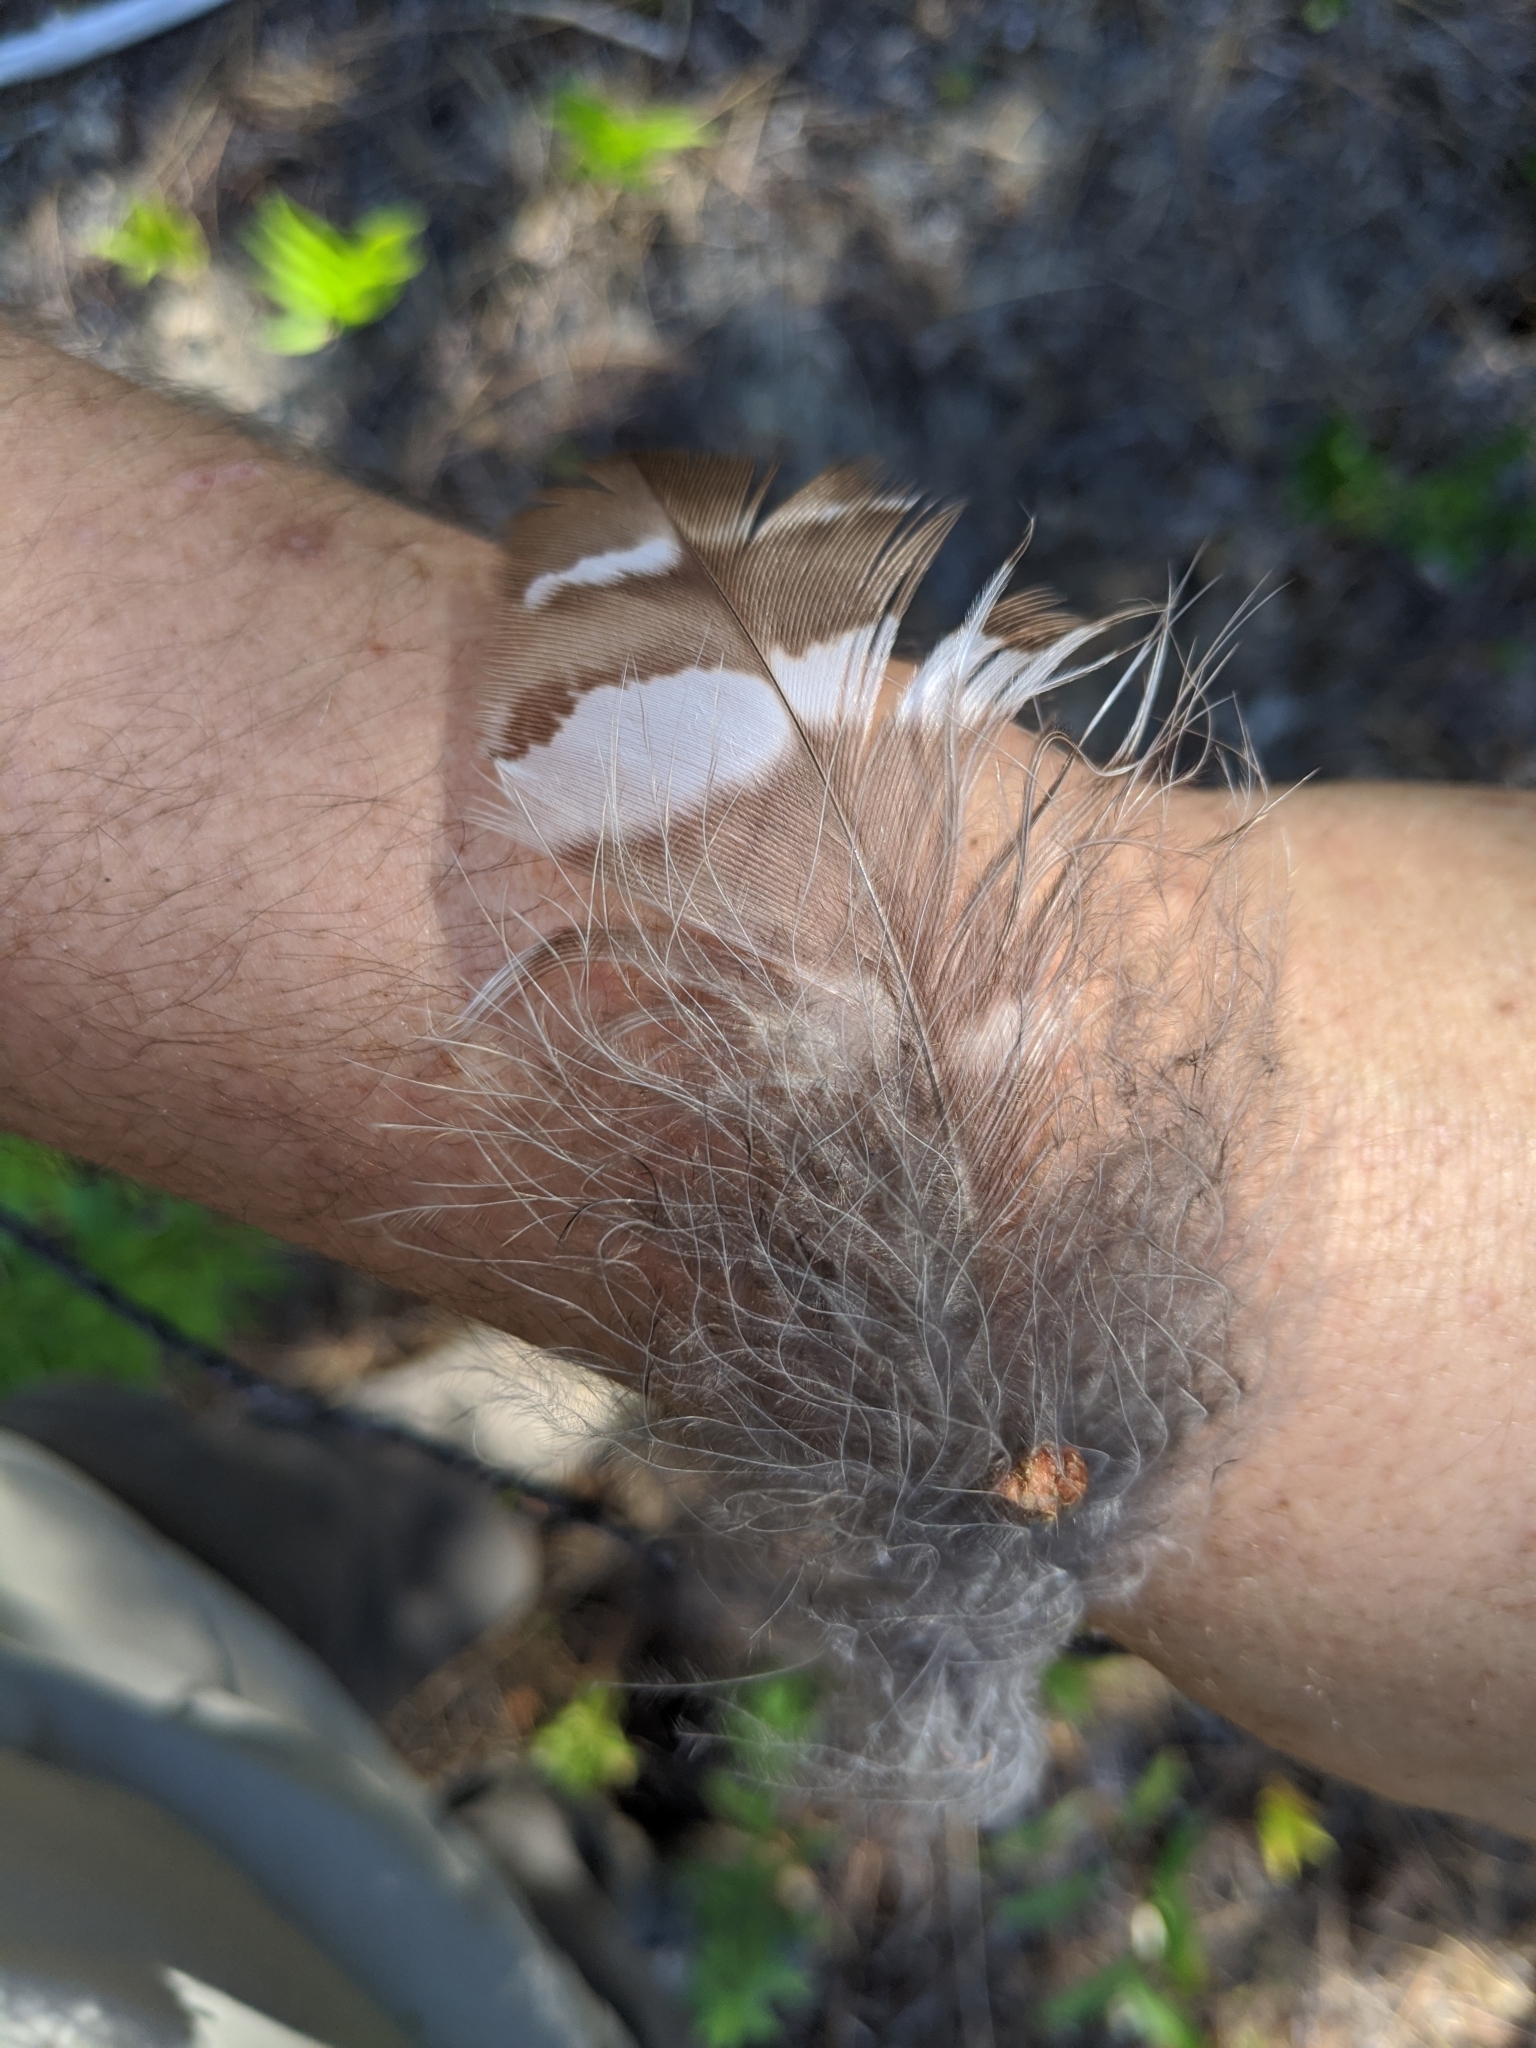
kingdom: Animalia
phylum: Chordata
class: Aves
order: Strigiformes
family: Strigidae
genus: Strix
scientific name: Strix varia
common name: Barred owl
